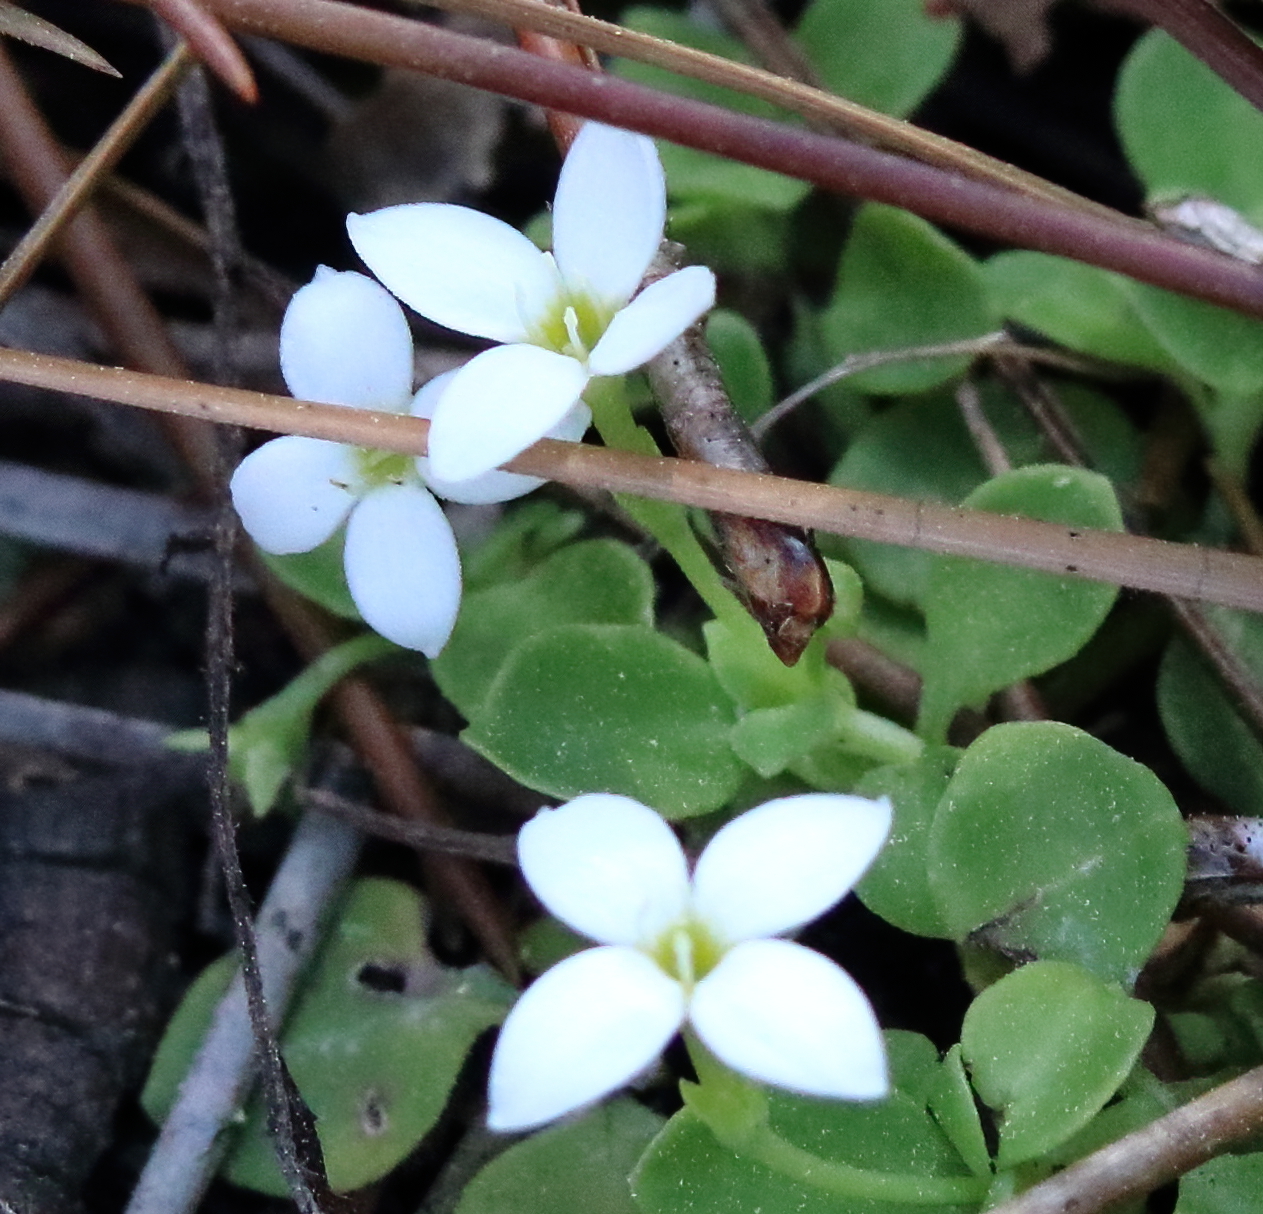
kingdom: Plantae
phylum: Tracheophyta
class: Magnoliopsida
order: Gentianales
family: Rubiaceae
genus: Houstonia
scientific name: Houstonia procumbens
